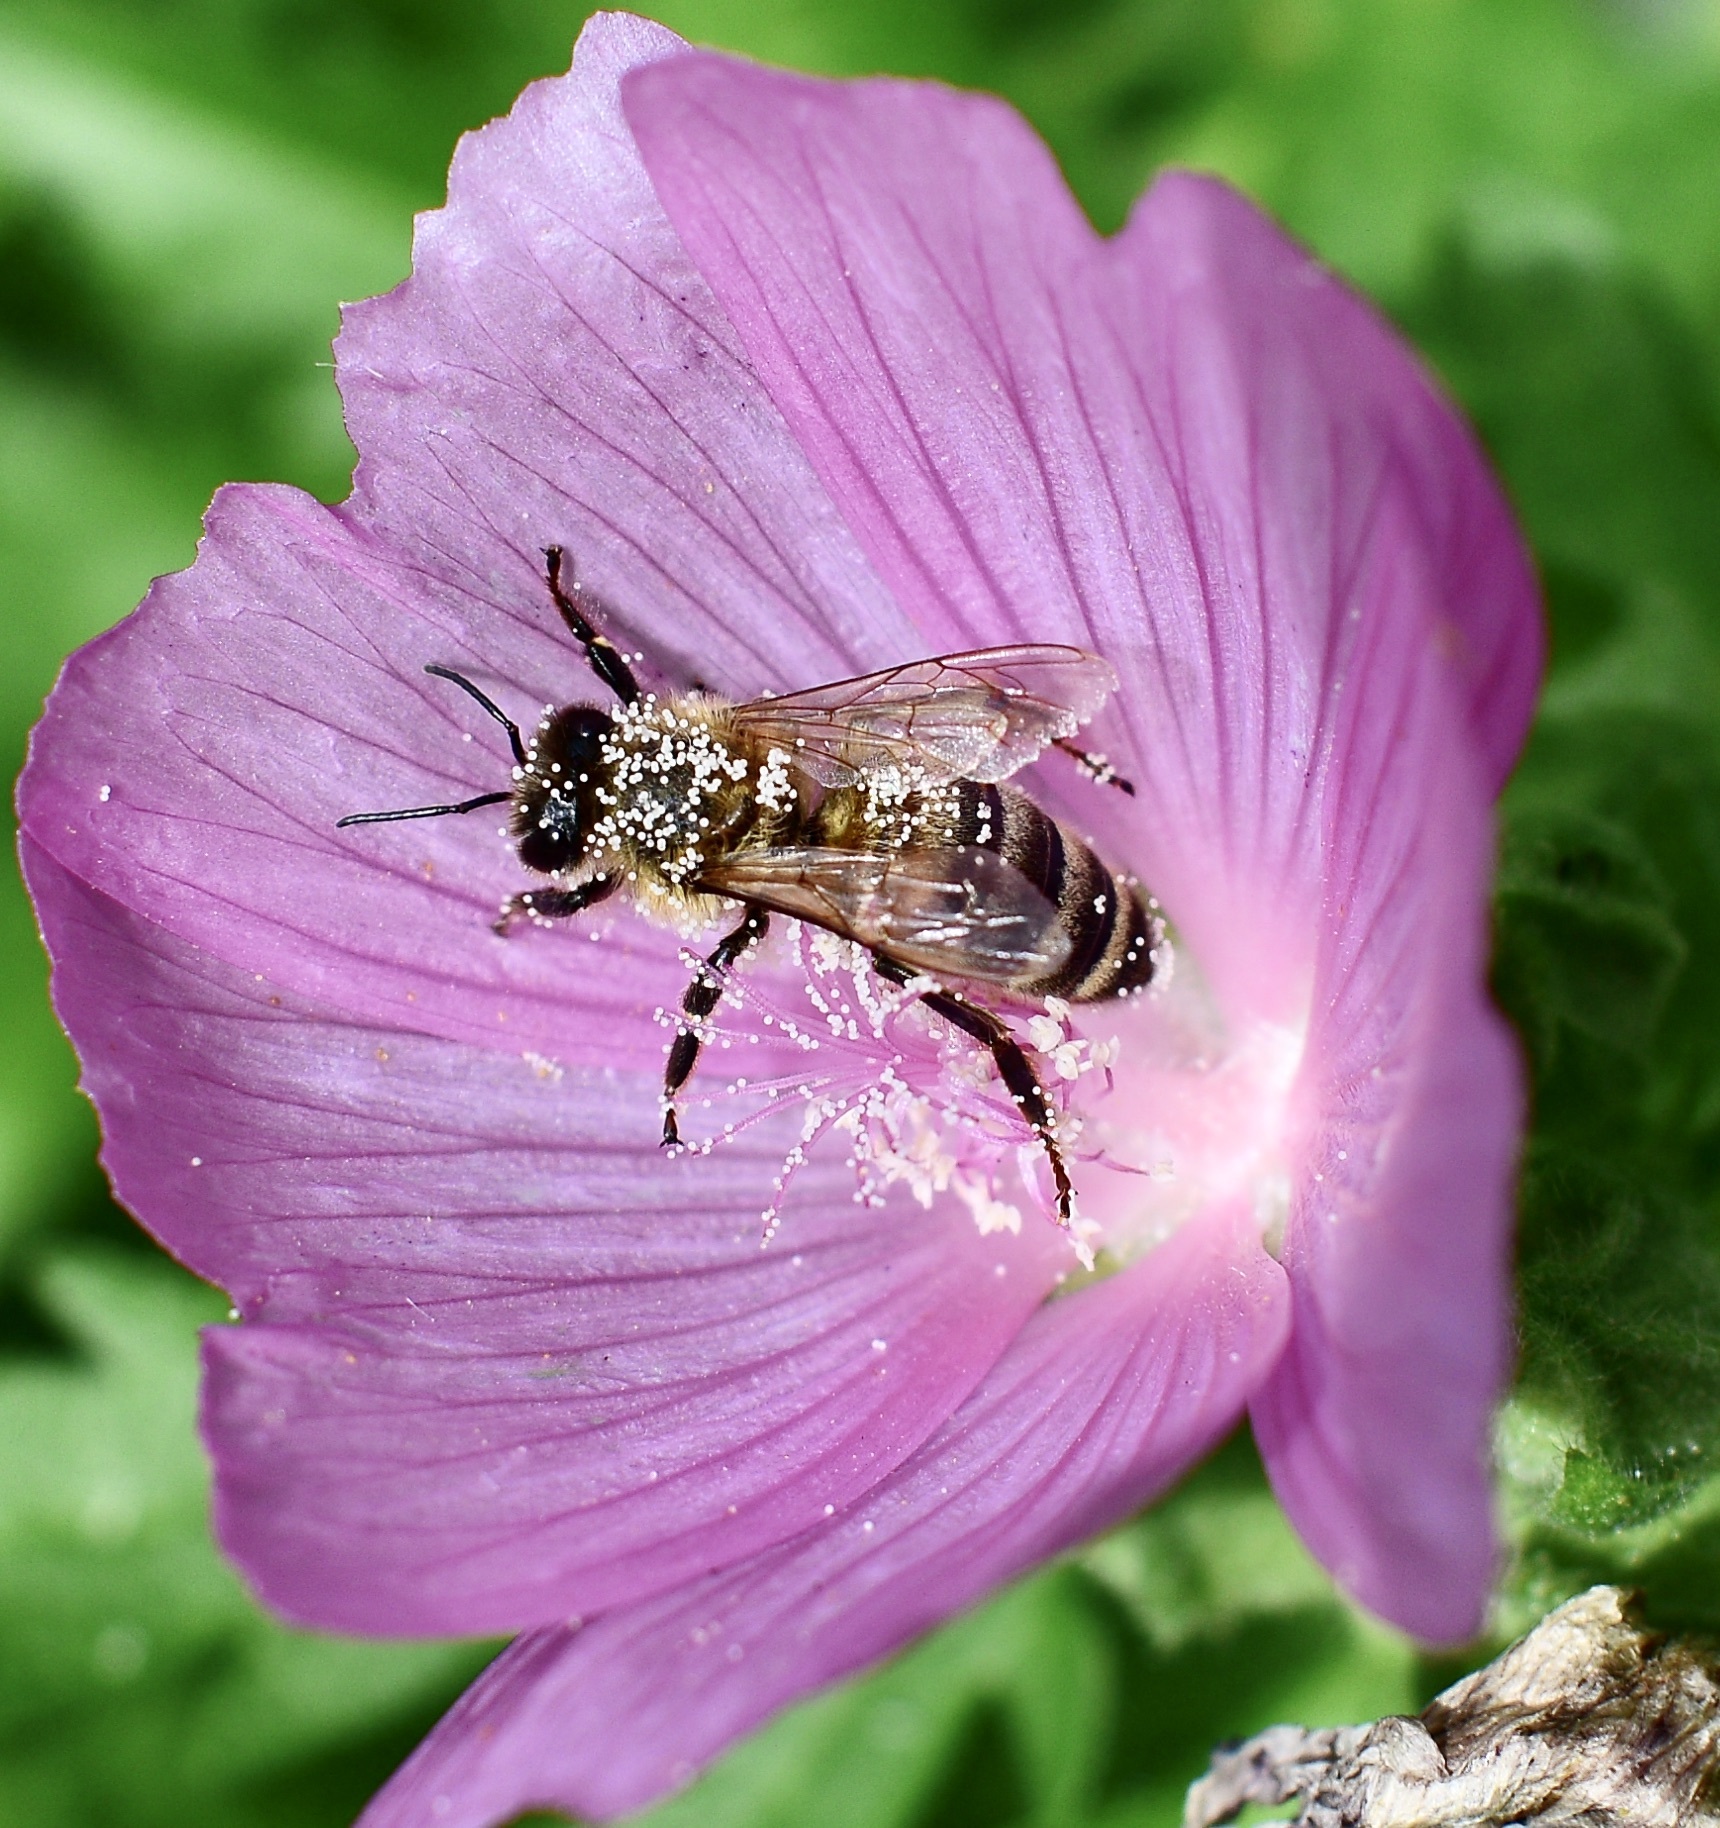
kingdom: Animalia
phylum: Arthropoda
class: Insecta
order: Hymenoptera
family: Apidae
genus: Apis
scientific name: Apis mellifera
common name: Honey bee
